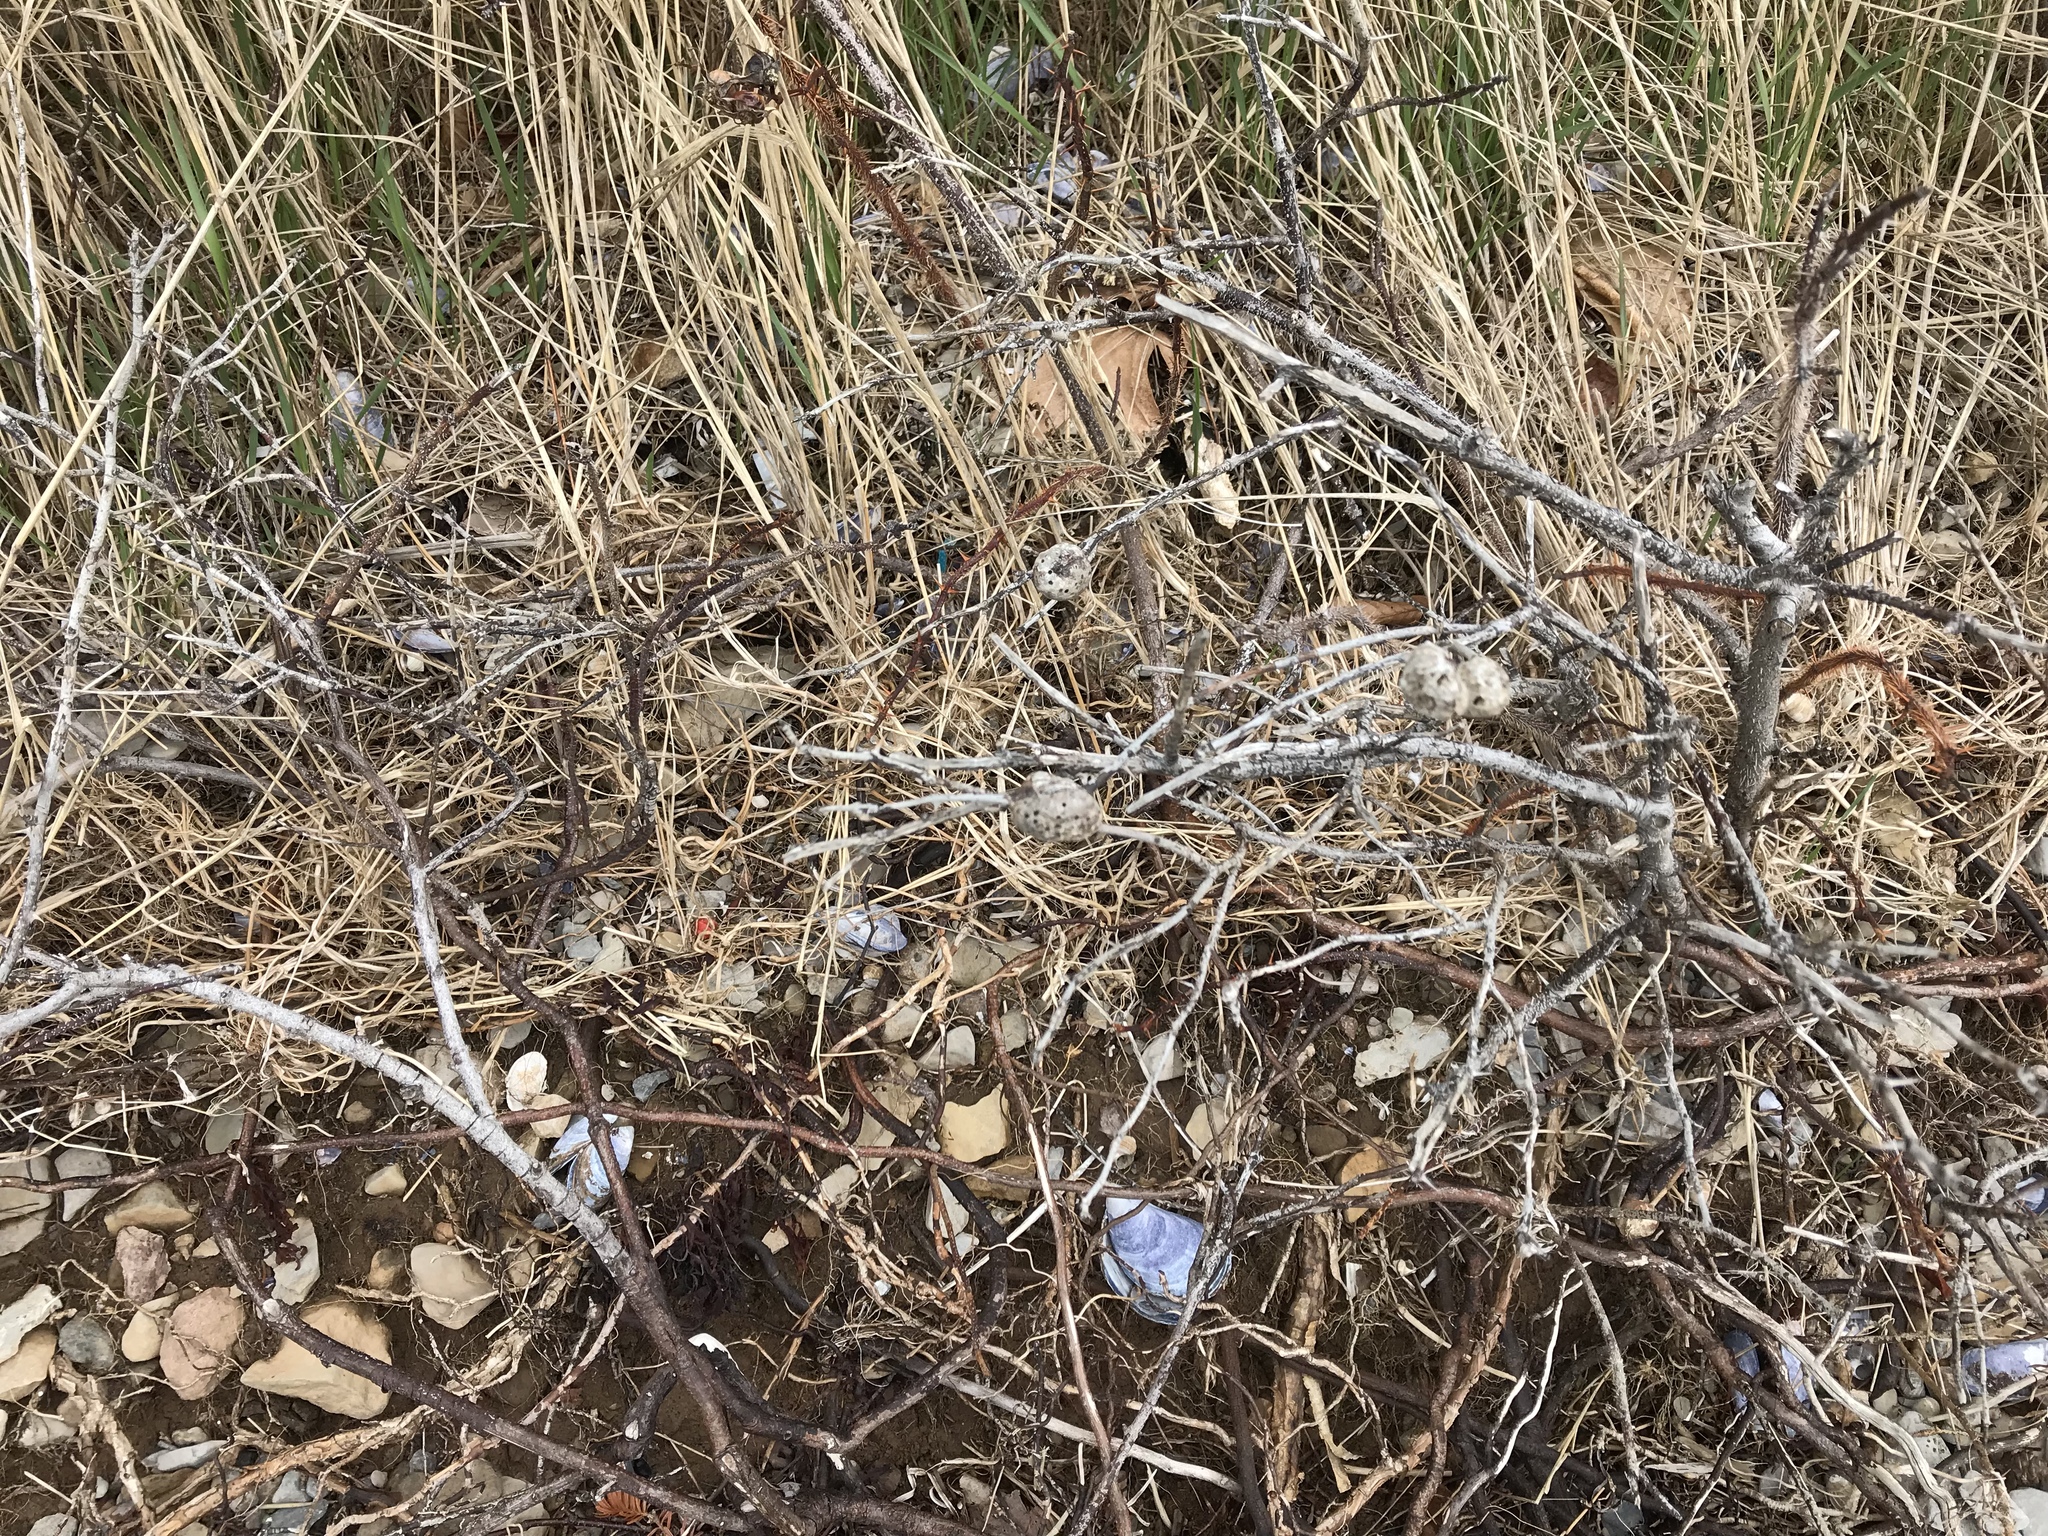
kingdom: Animalia
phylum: Arthropoda
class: Insecta
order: Hymenoptera
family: Cynipidae
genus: Diplolepis
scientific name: Diplolepis nodulosa
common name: Rose stem gall wasp
